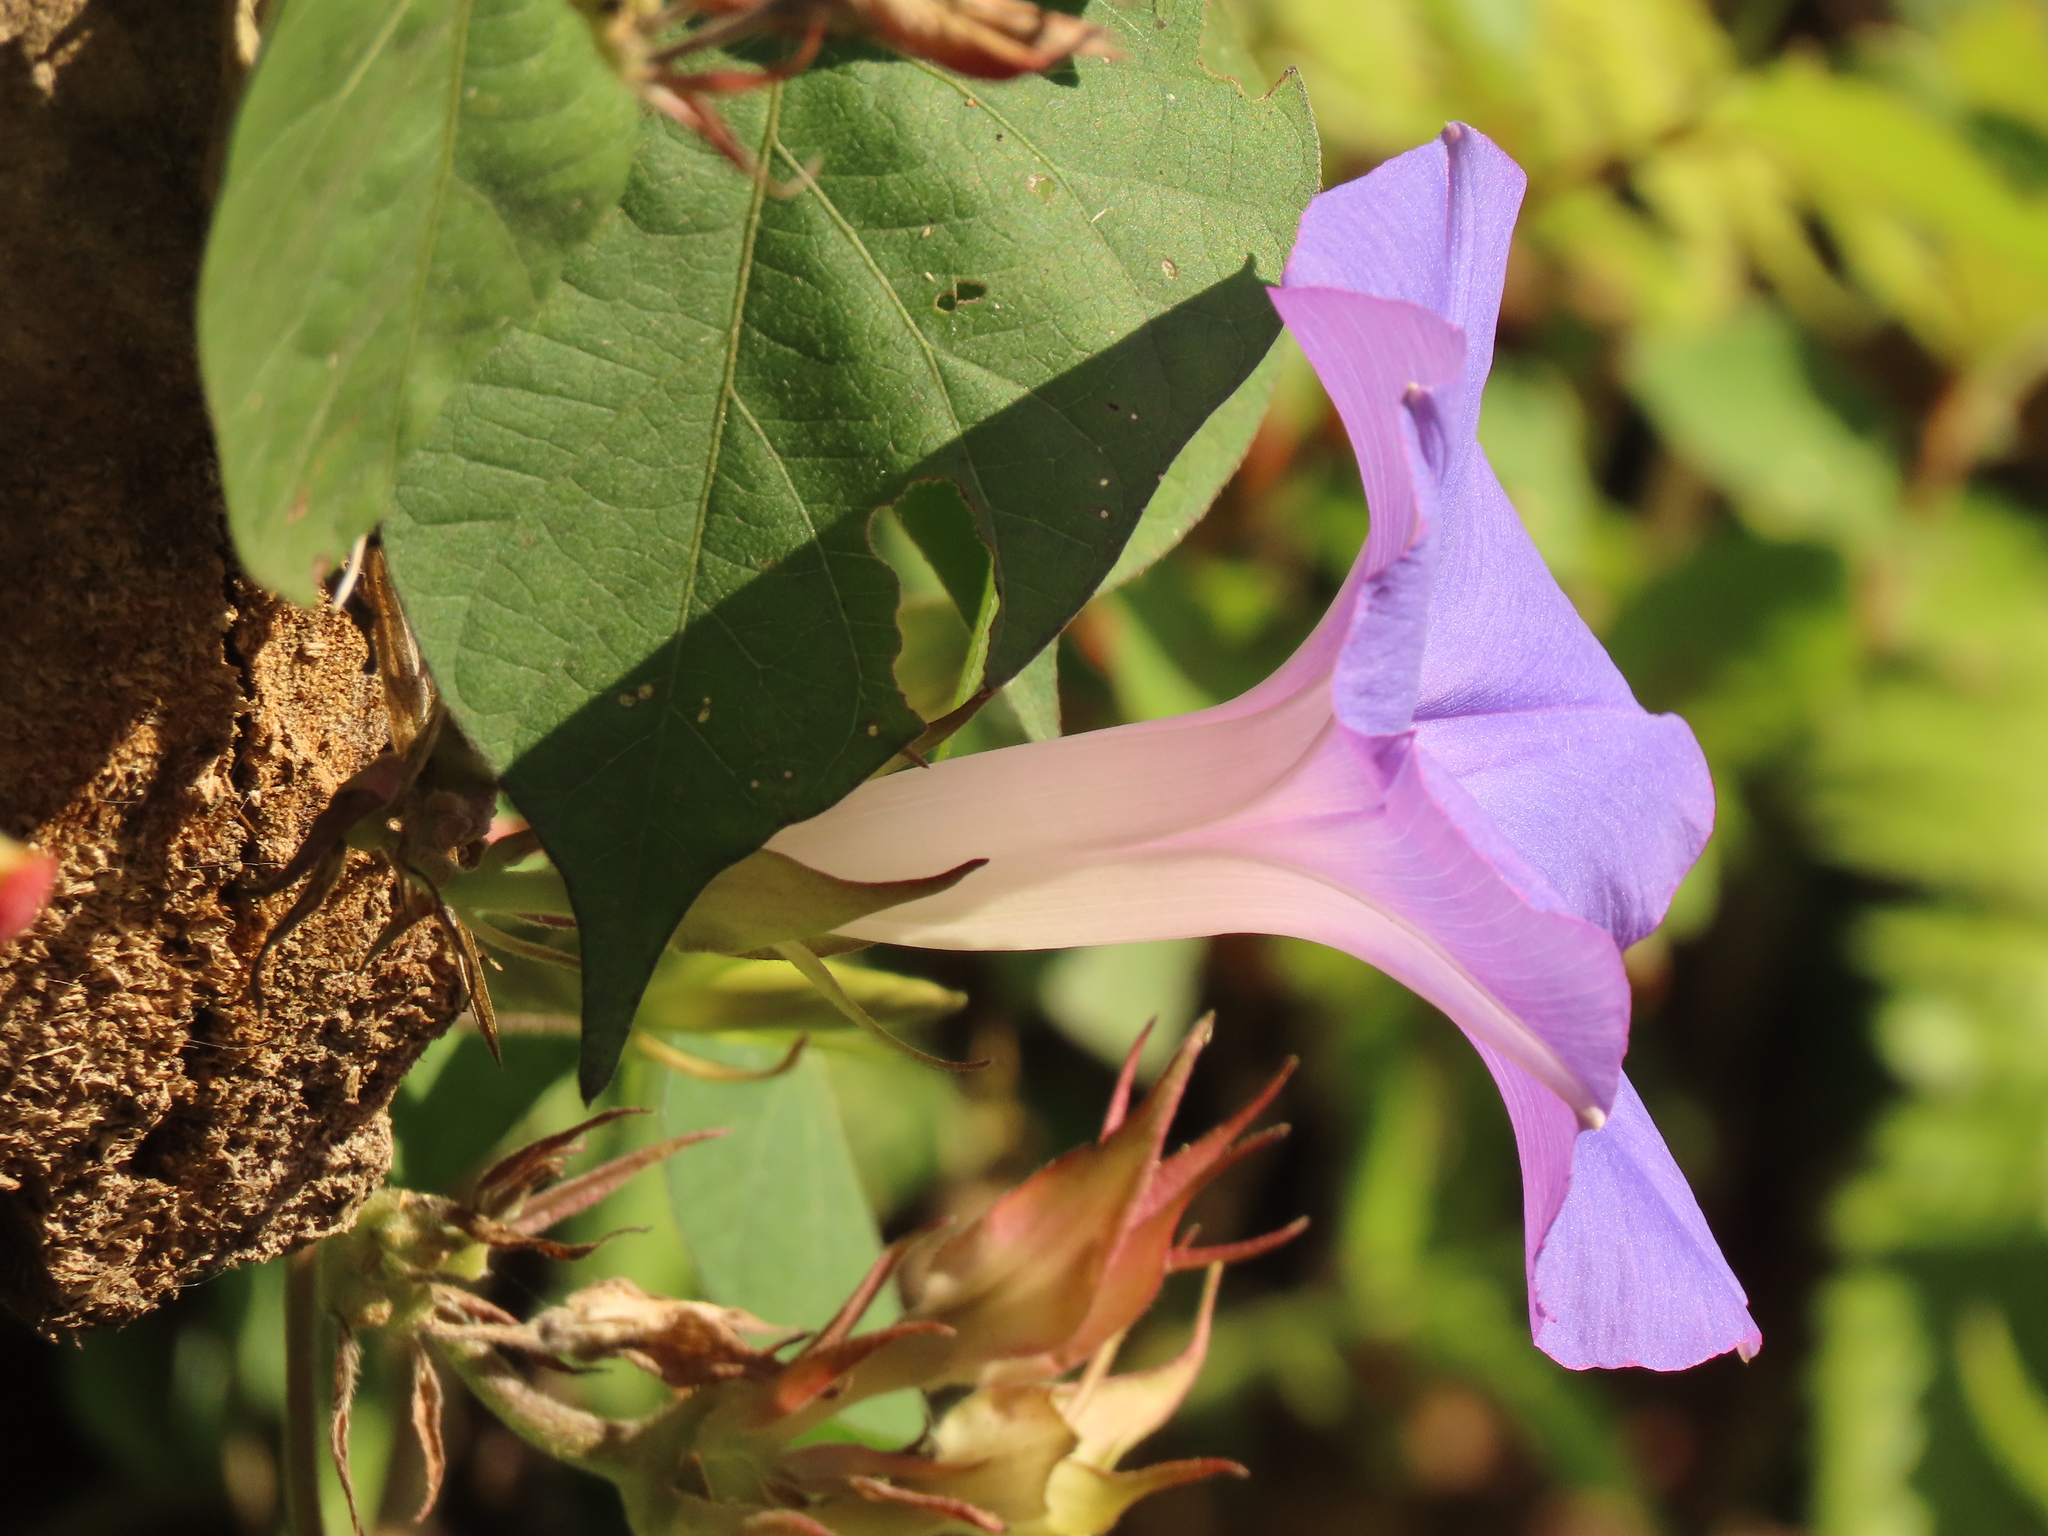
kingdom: Plantae
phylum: Tracheophyta
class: Magnoliopsida
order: Solanales
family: Convolvulaceae
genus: Ipomoea
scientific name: Ipomoea indica
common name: Blue dawnflower
